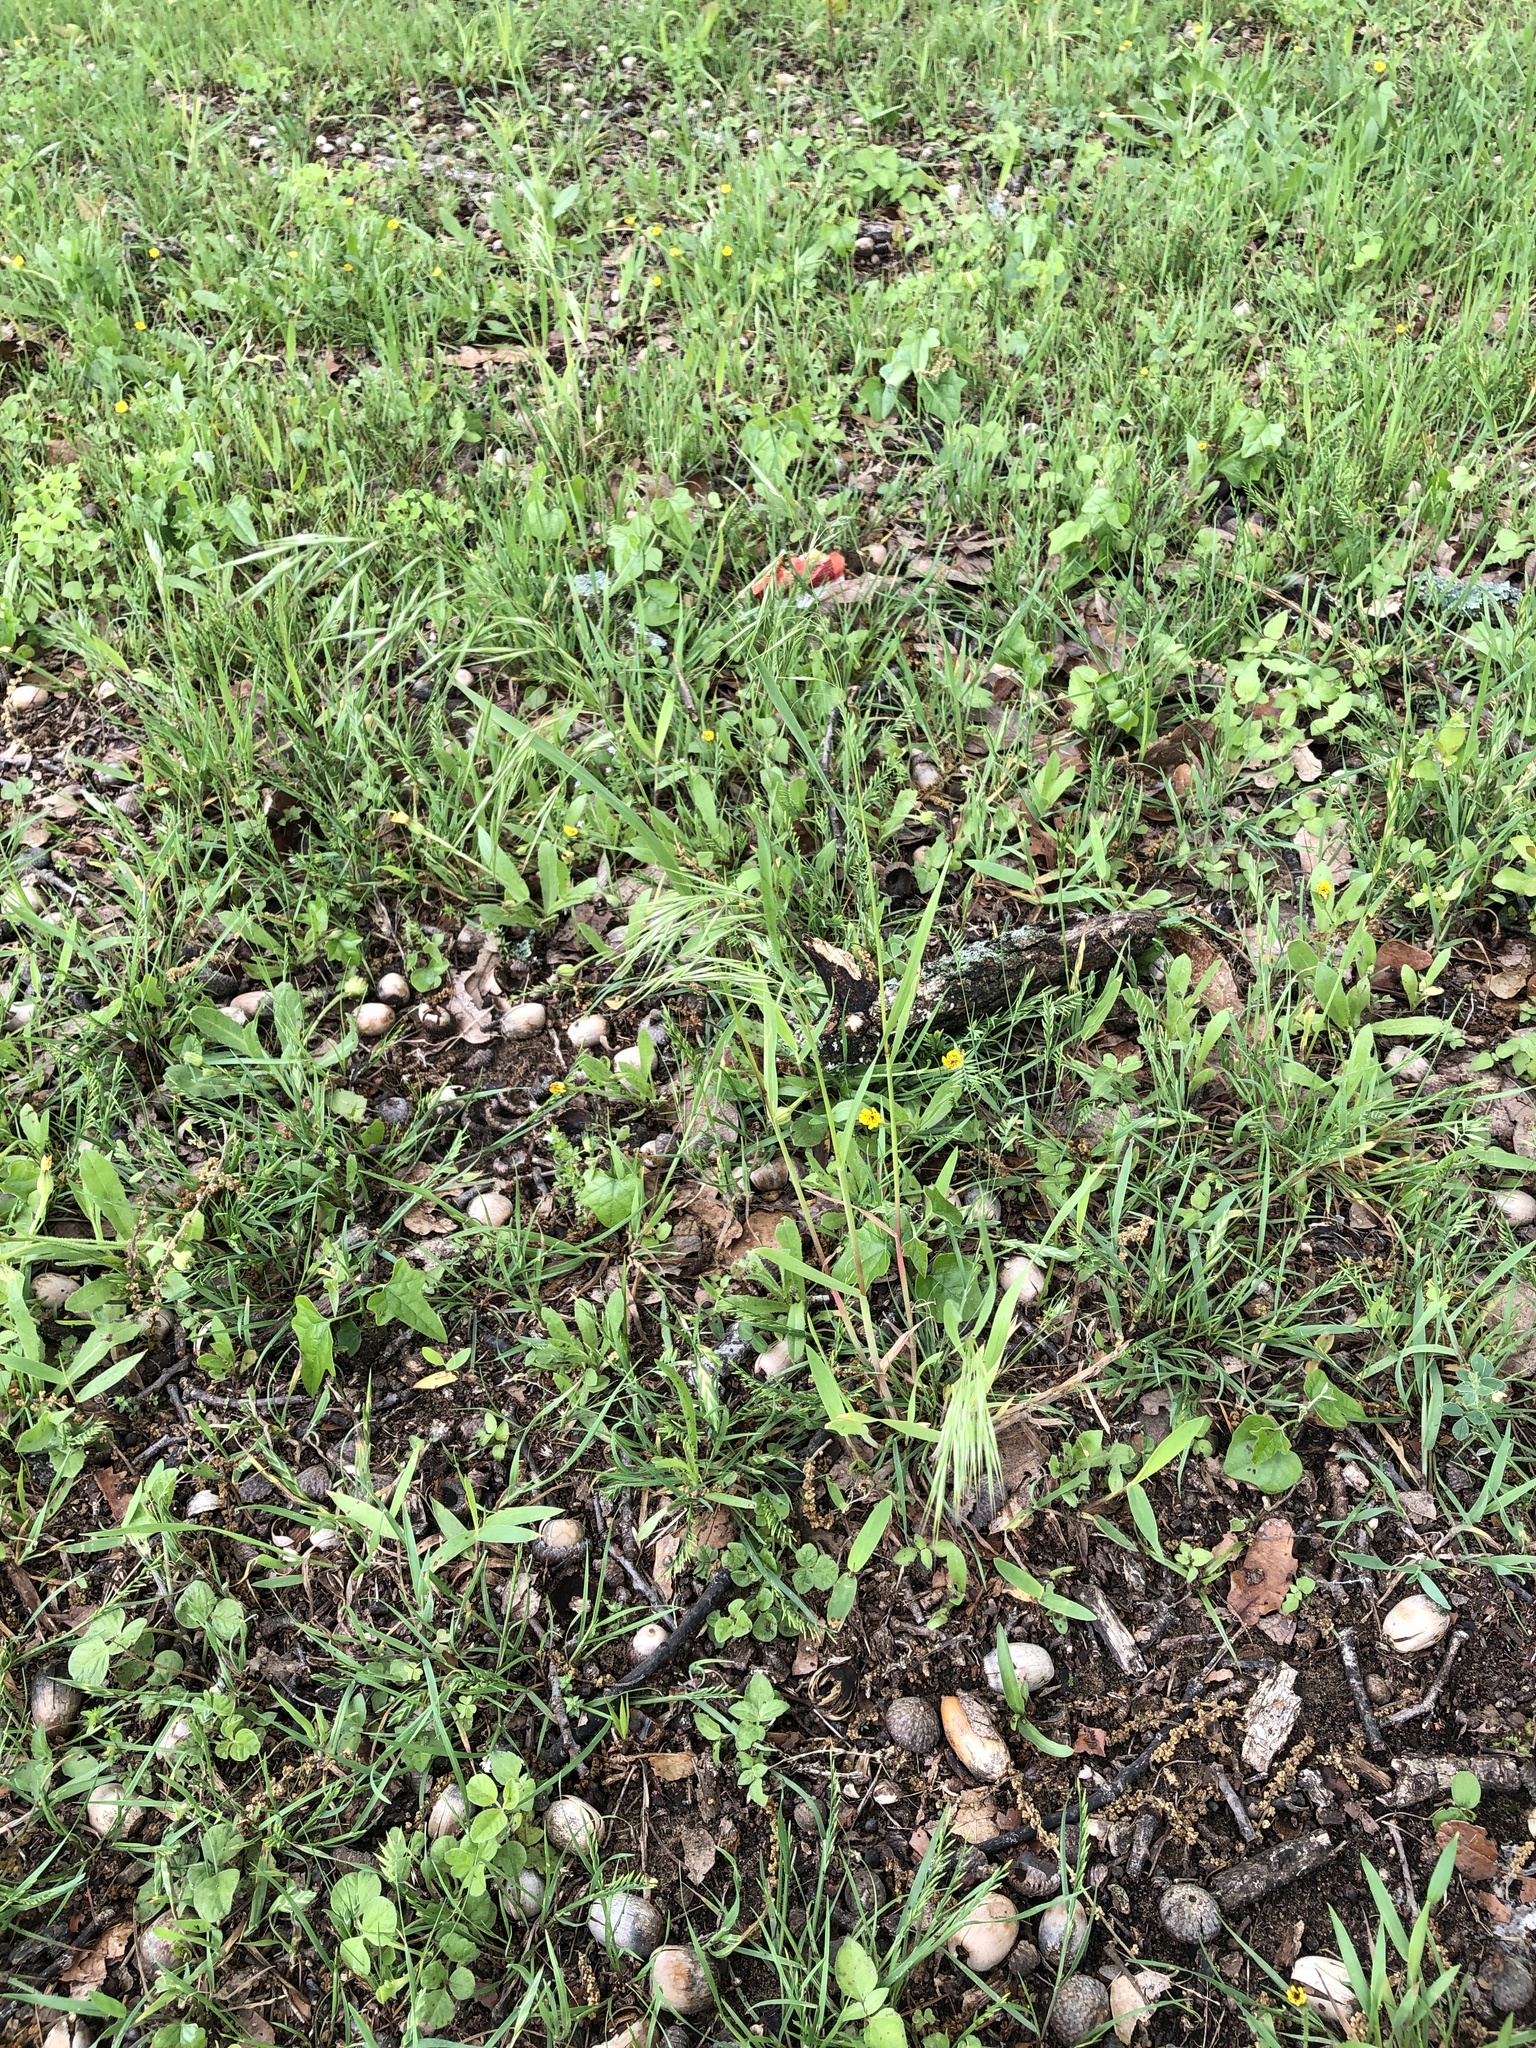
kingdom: Plantae
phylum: Tracheophyta
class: Liliopsida
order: Poales
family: Poaceae
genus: Bromus
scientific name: Bromus tectorum
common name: Cheatgrass
